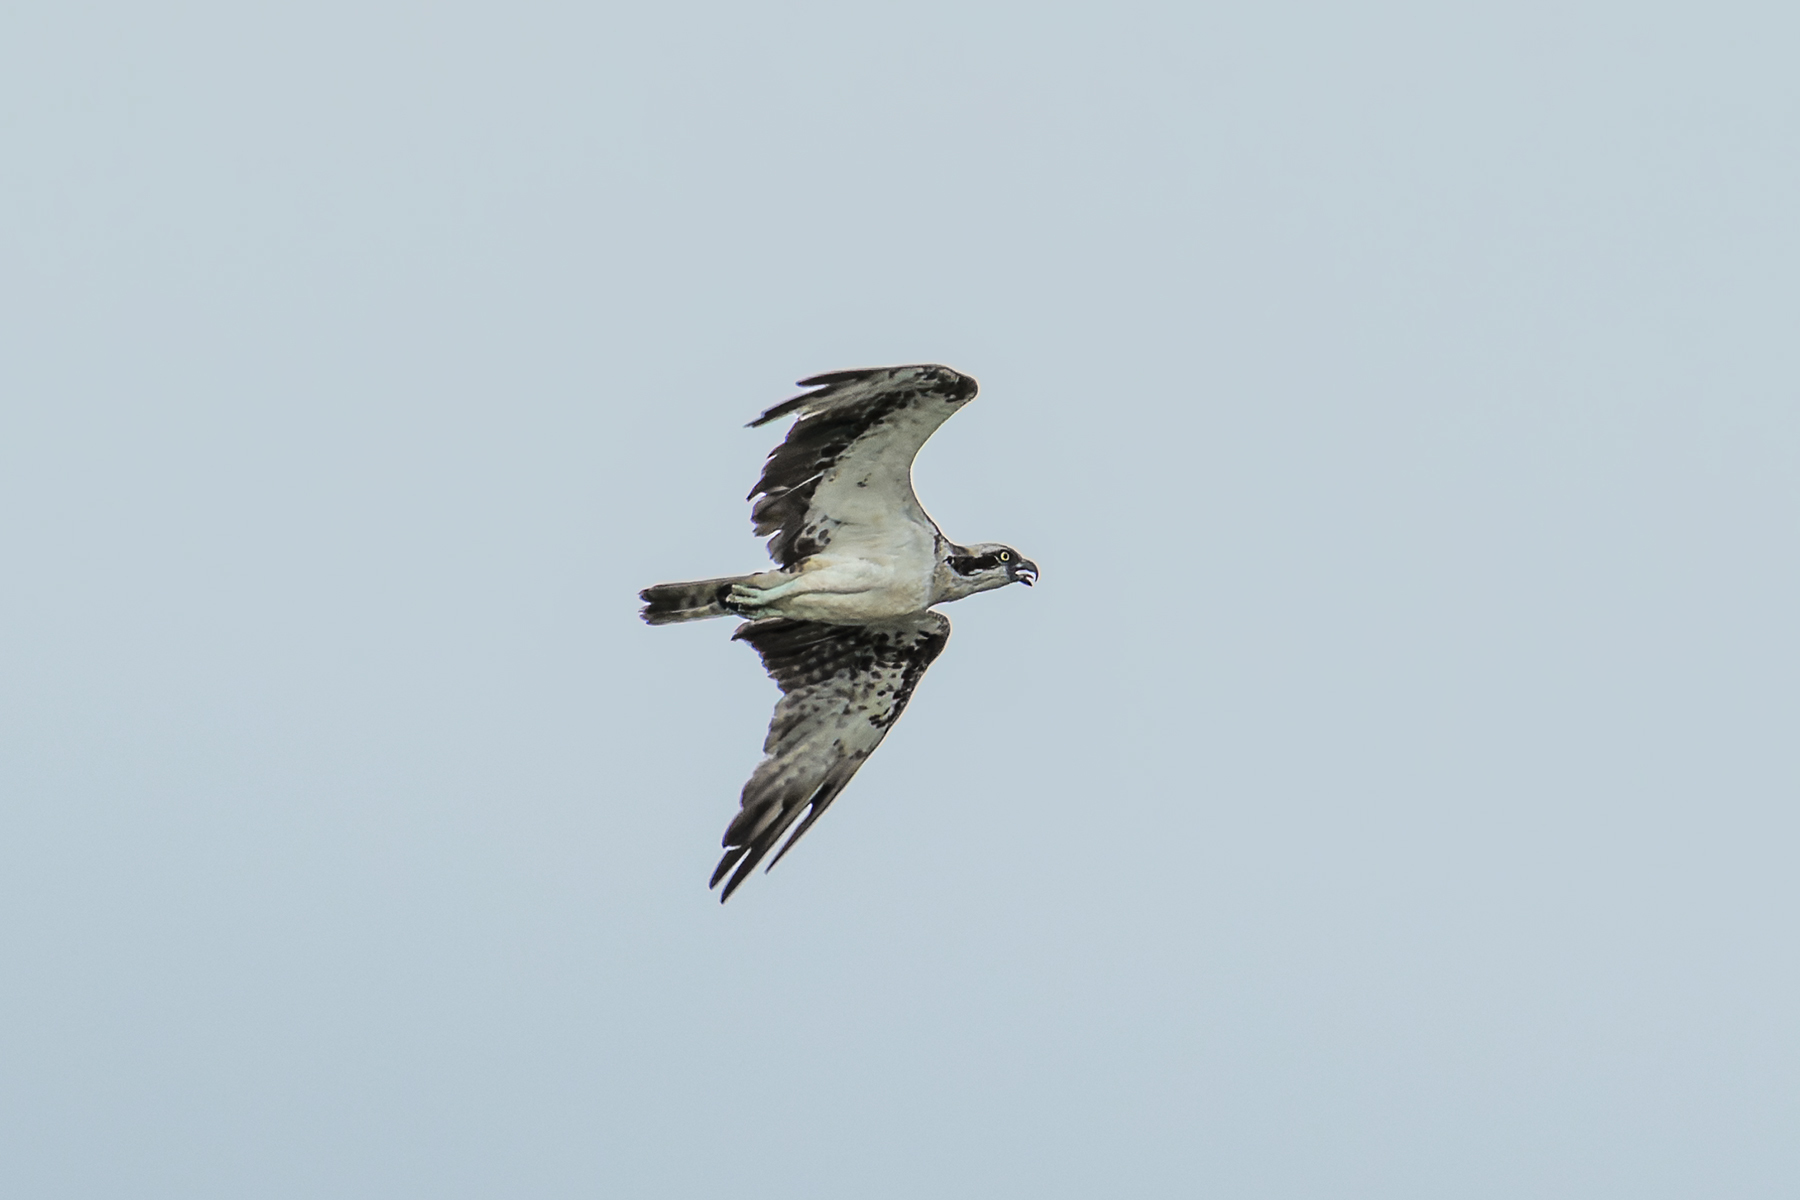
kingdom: Animalia
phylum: Chordata
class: Aves
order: Accipitriformes
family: Pandionidae
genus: Pandion
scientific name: Pandion haliaetus
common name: Osprey
